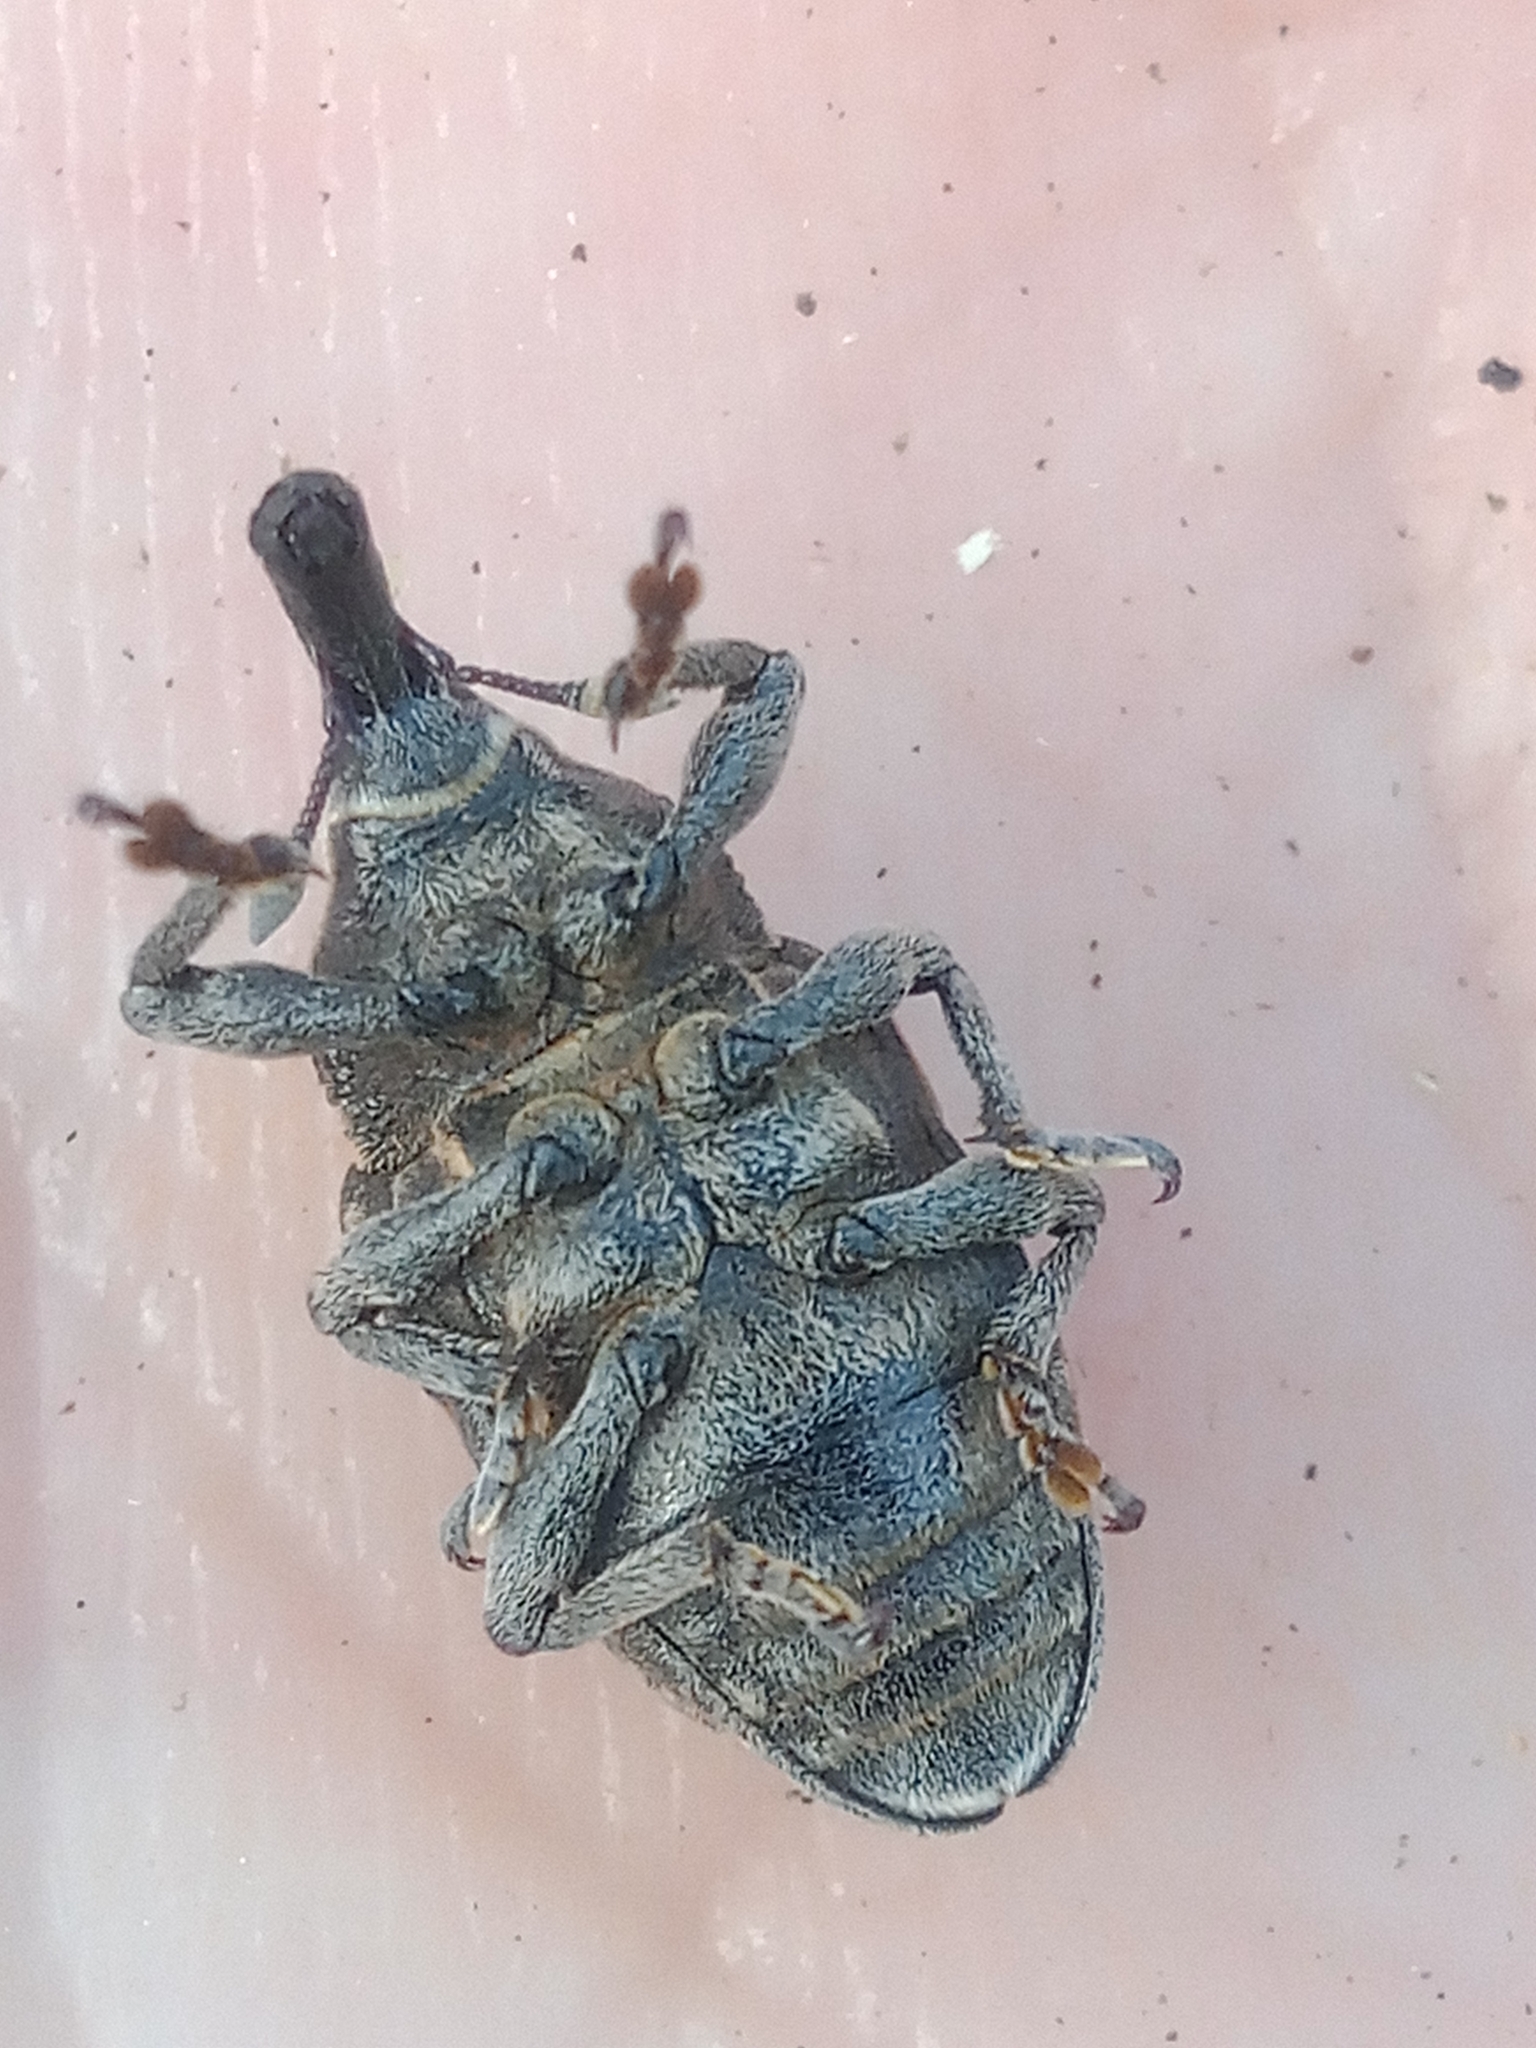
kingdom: Animalia
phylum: Arthropoda
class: Insecta
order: Coleoptera
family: Curculionidae
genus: Larinus
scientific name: Larinus pollinis
